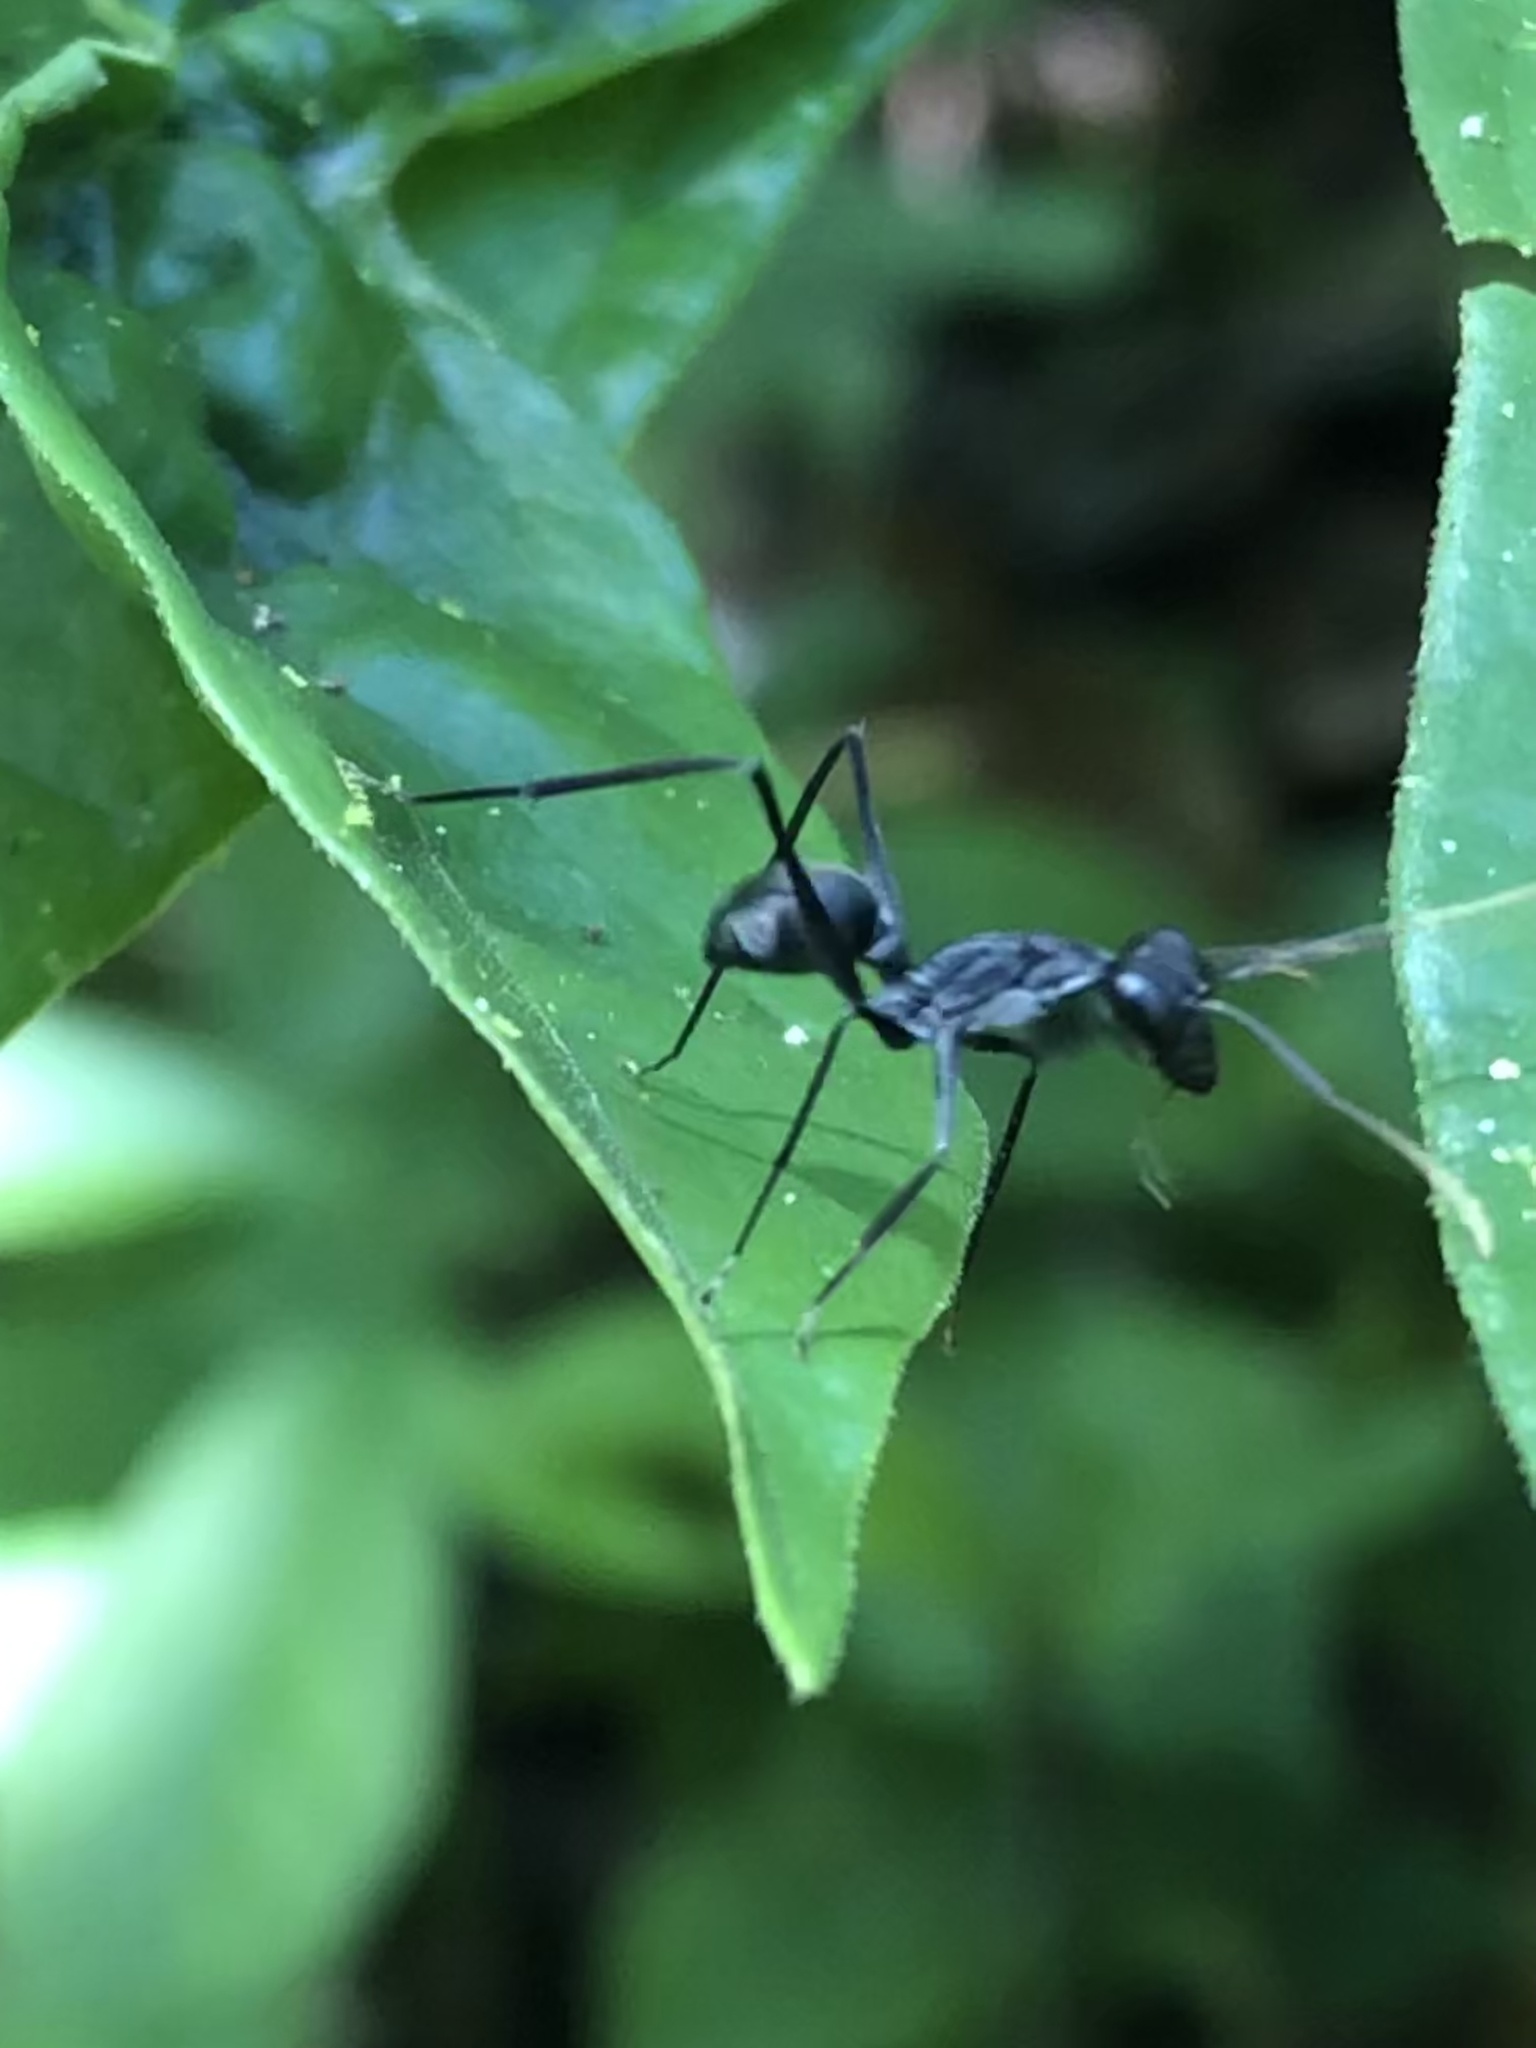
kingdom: Animalia
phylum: Arthropoda
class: Insecta
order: Hymenoptera
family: Formicidae
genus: Gigantiops
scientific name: Gigantiops destructor
